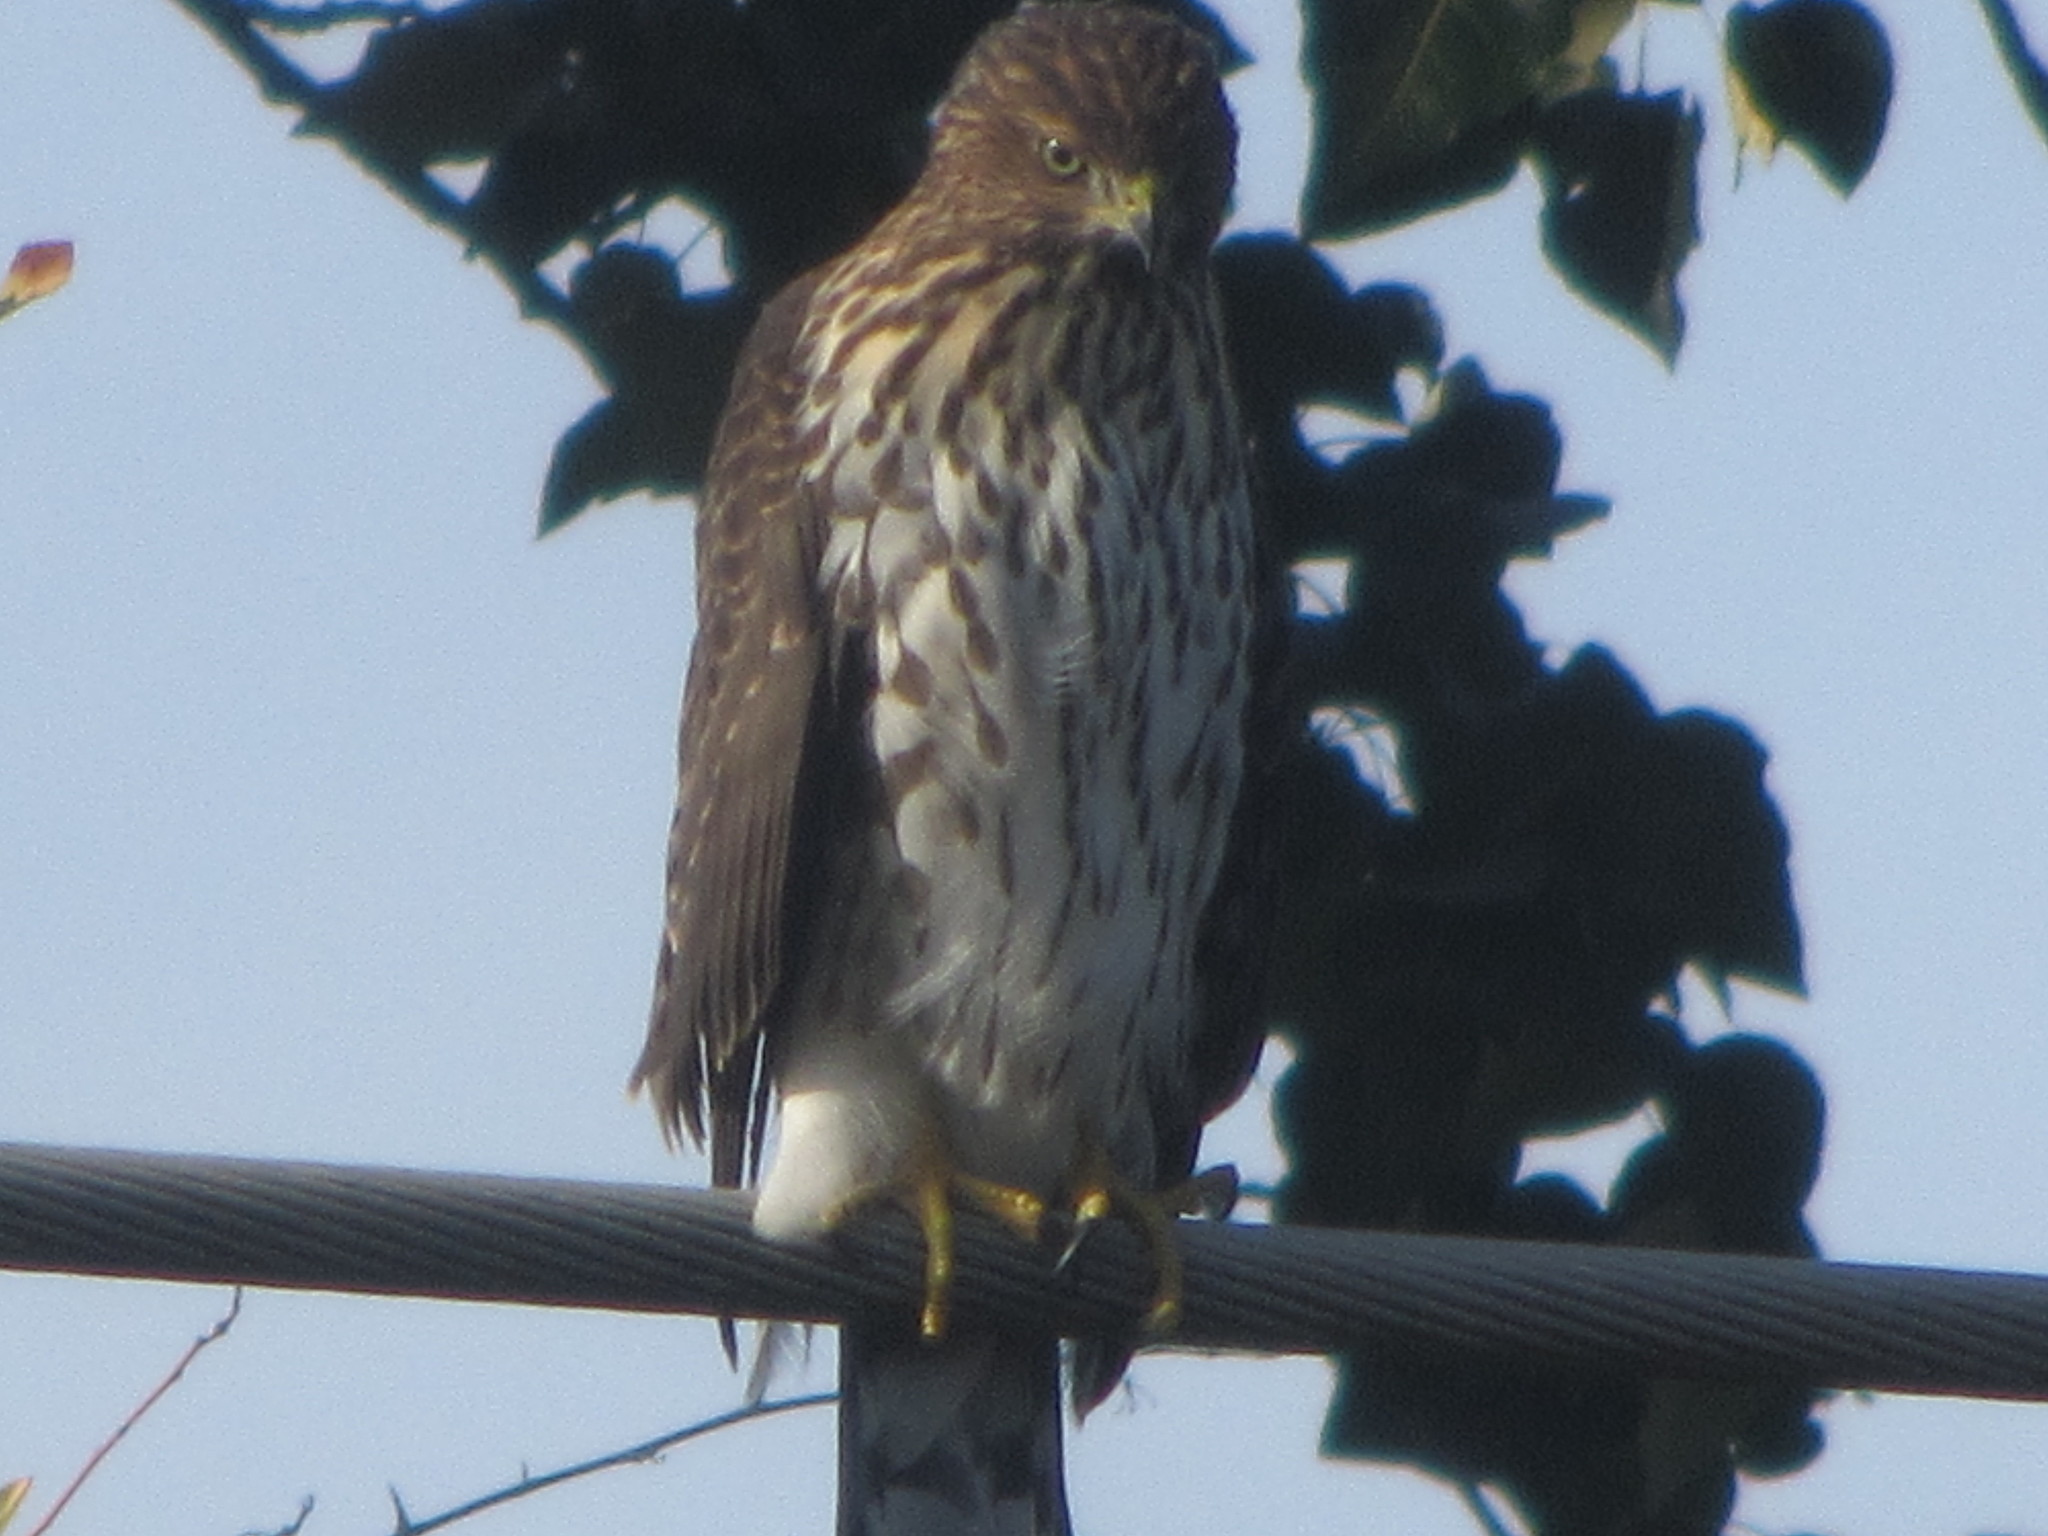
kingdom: Animalia
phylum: Chordata
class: Aves
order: Accipitriformes
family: Accipitridae
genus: Accipiter
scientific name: Accipiter cooperii
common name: Cooper's hawk
